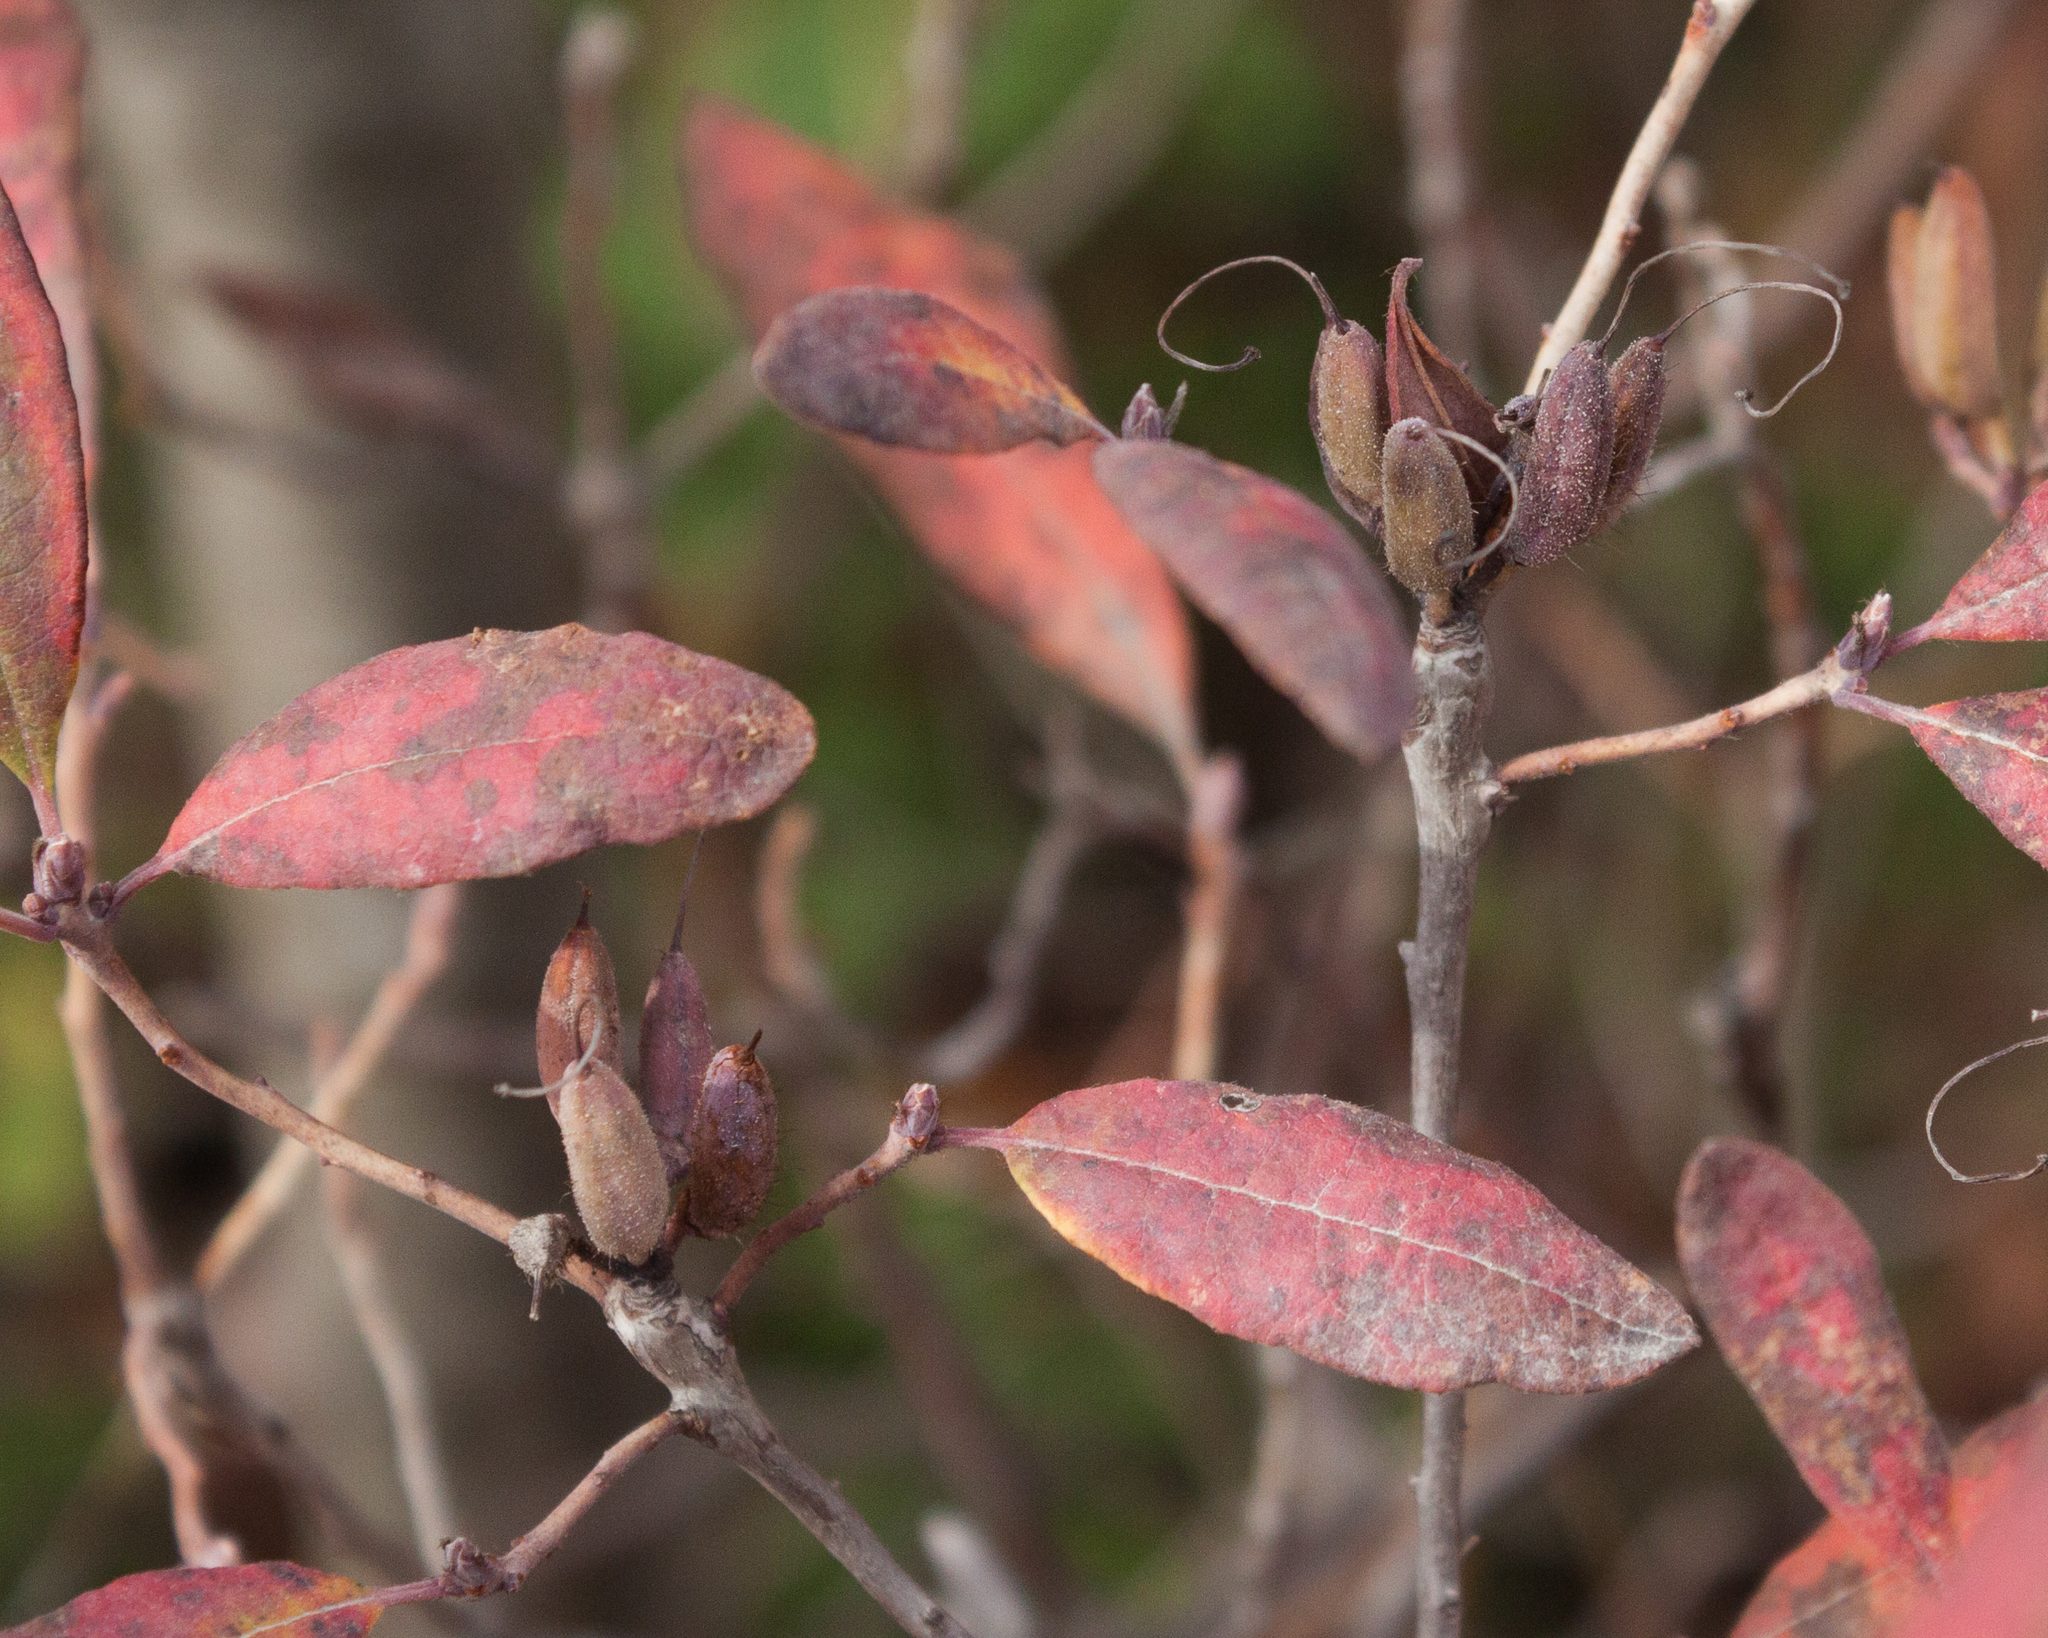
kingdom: Plantae
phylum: Tracheophyta
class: Magnoliopsida
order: Ericales
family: Ericaceae
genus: Rhododendron
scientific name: Rhododendron canadense
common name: Rhodora
